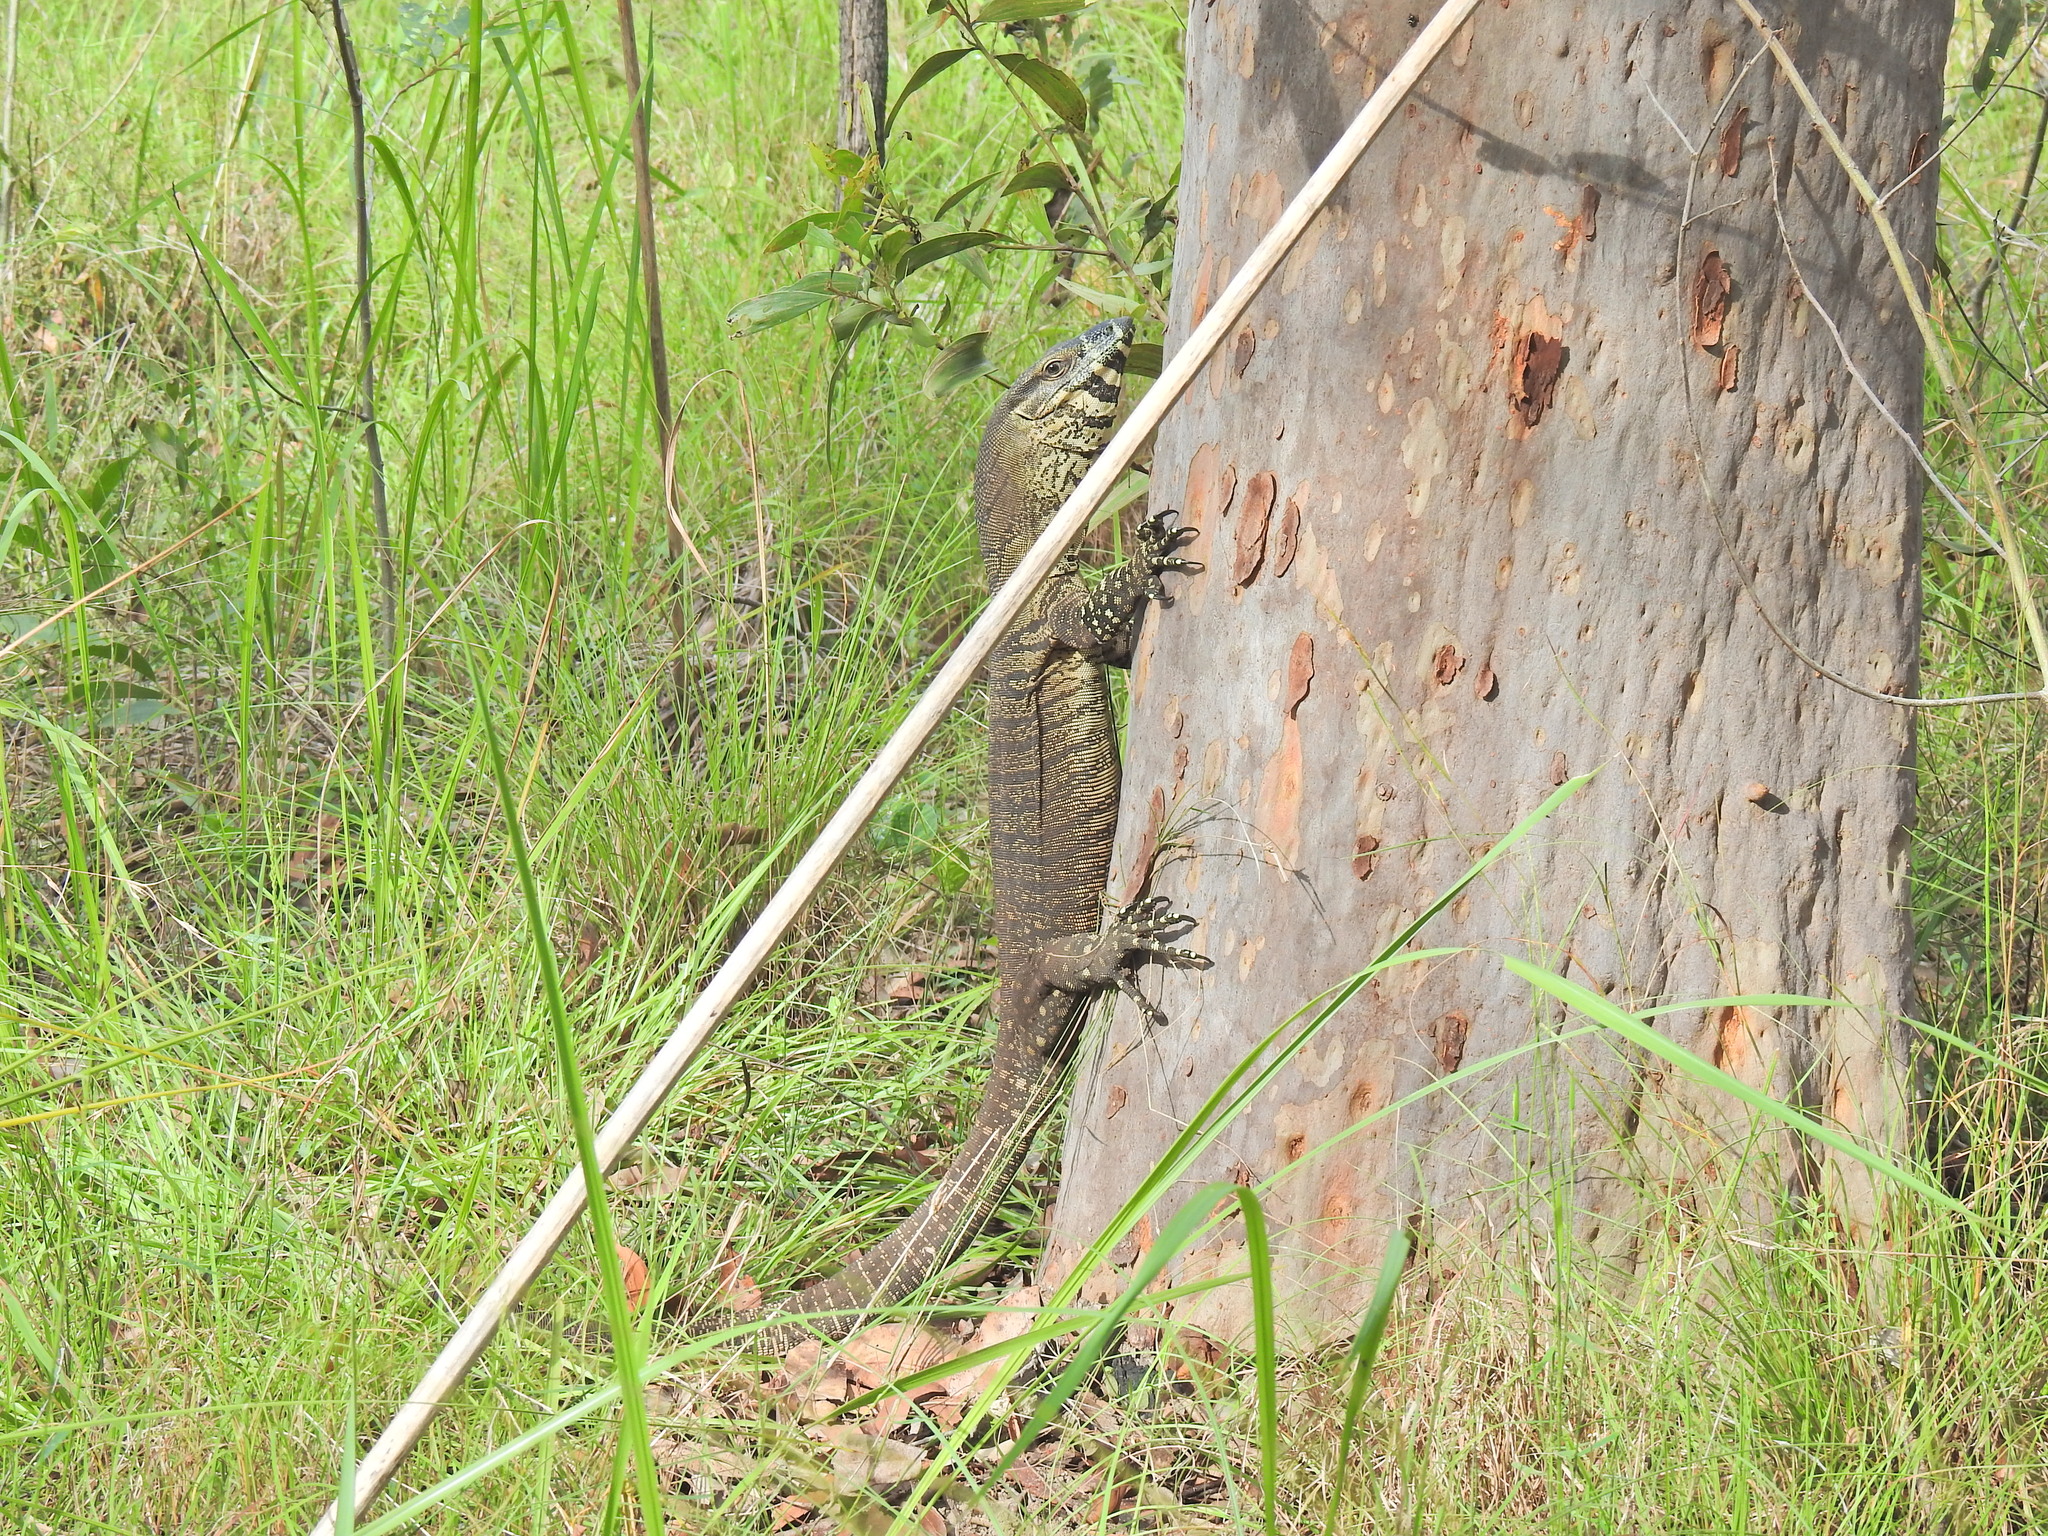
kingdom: Animalia
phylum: Chordata
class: Squamata
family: Varanidae
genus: Varanus
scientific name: Varanus varius
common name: Lace monitor
